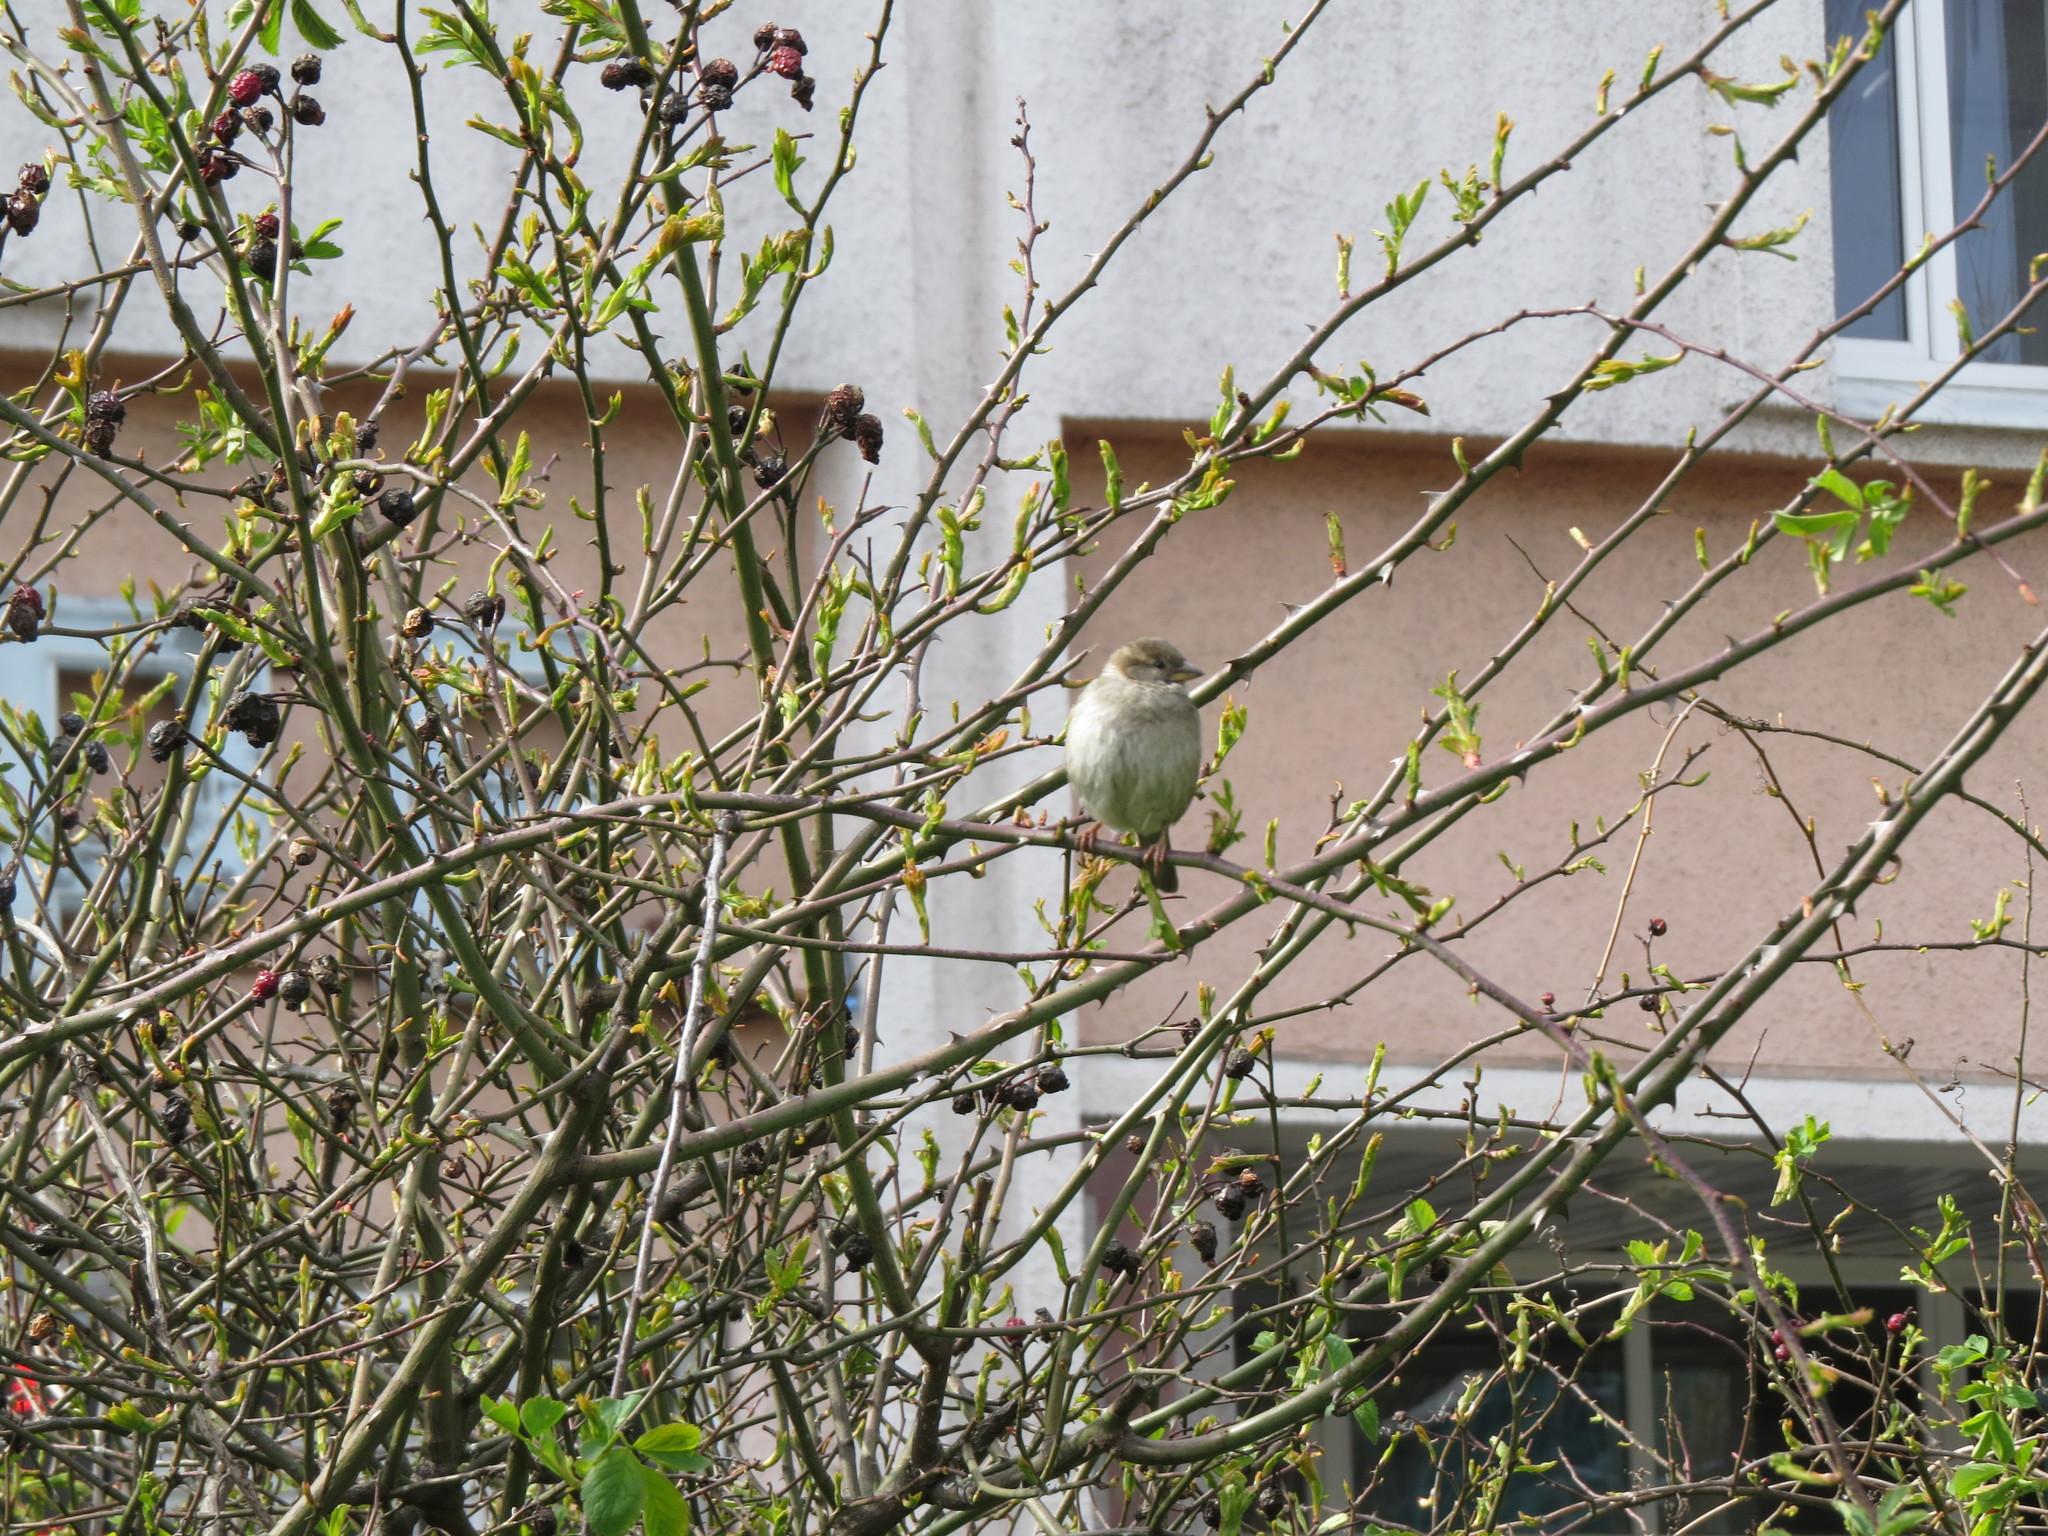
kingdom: Animalia
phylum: Chordata
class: Aves
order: Passeriformes
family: Passeridae
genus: Passer
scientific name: Passer domesticus
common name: House sparrow
